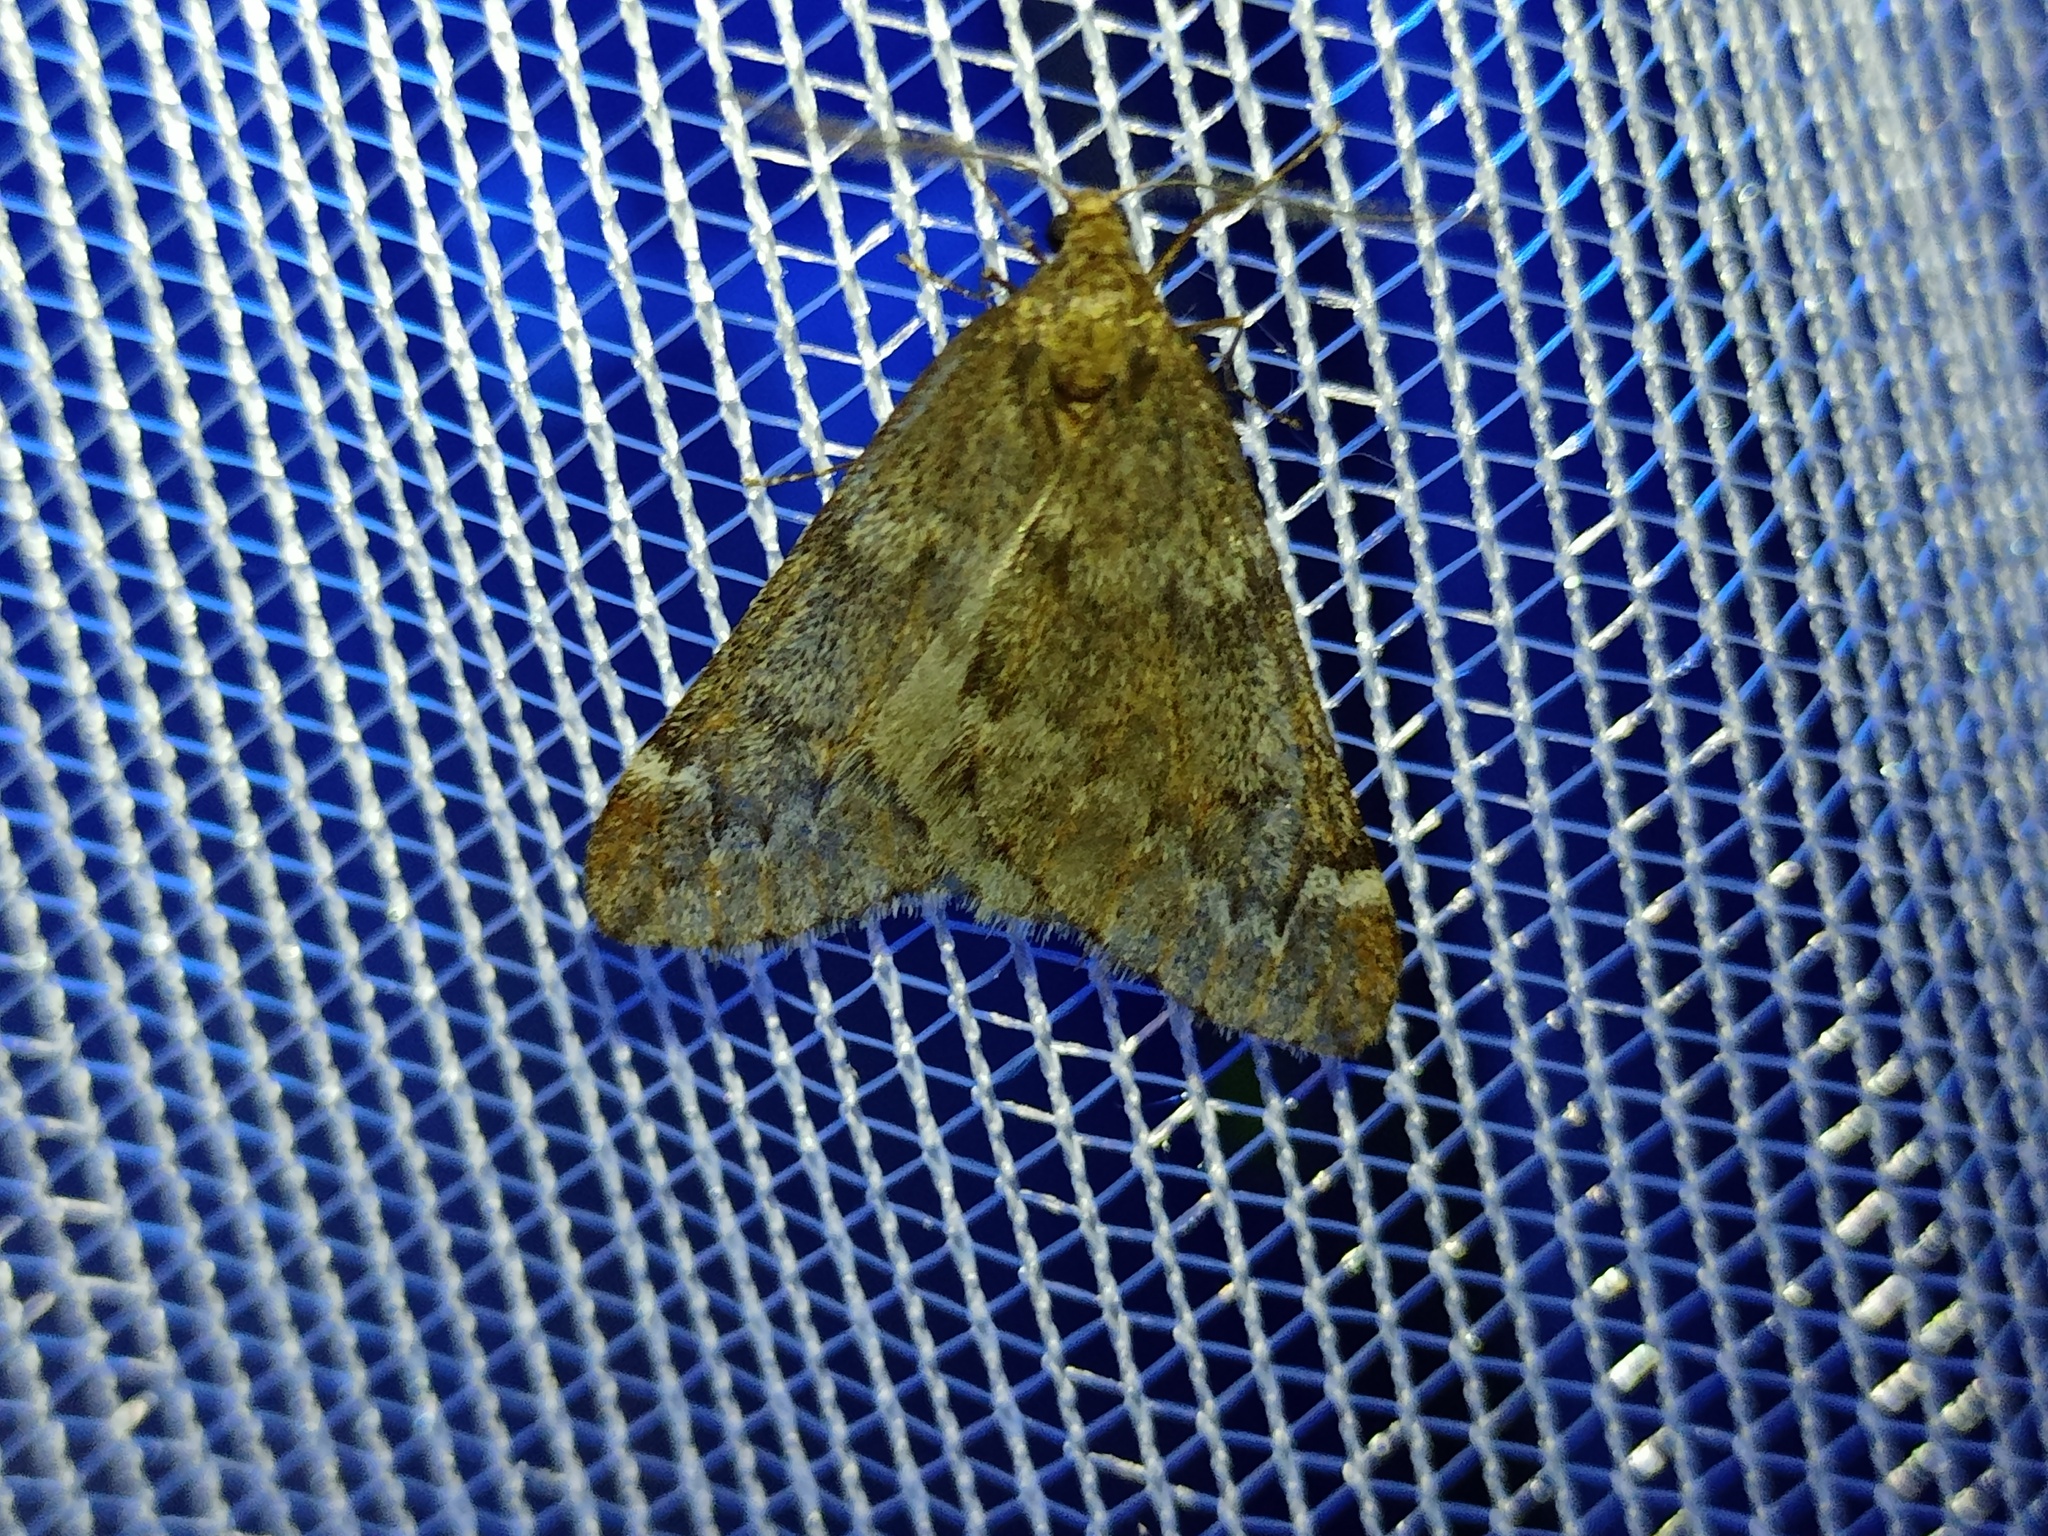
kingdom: Animalia
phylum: Arthropoda
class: Insecta
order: Lepidoptera
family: Geometridae
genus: Alsophila
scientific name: Alsophila aescularia
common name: March moth
